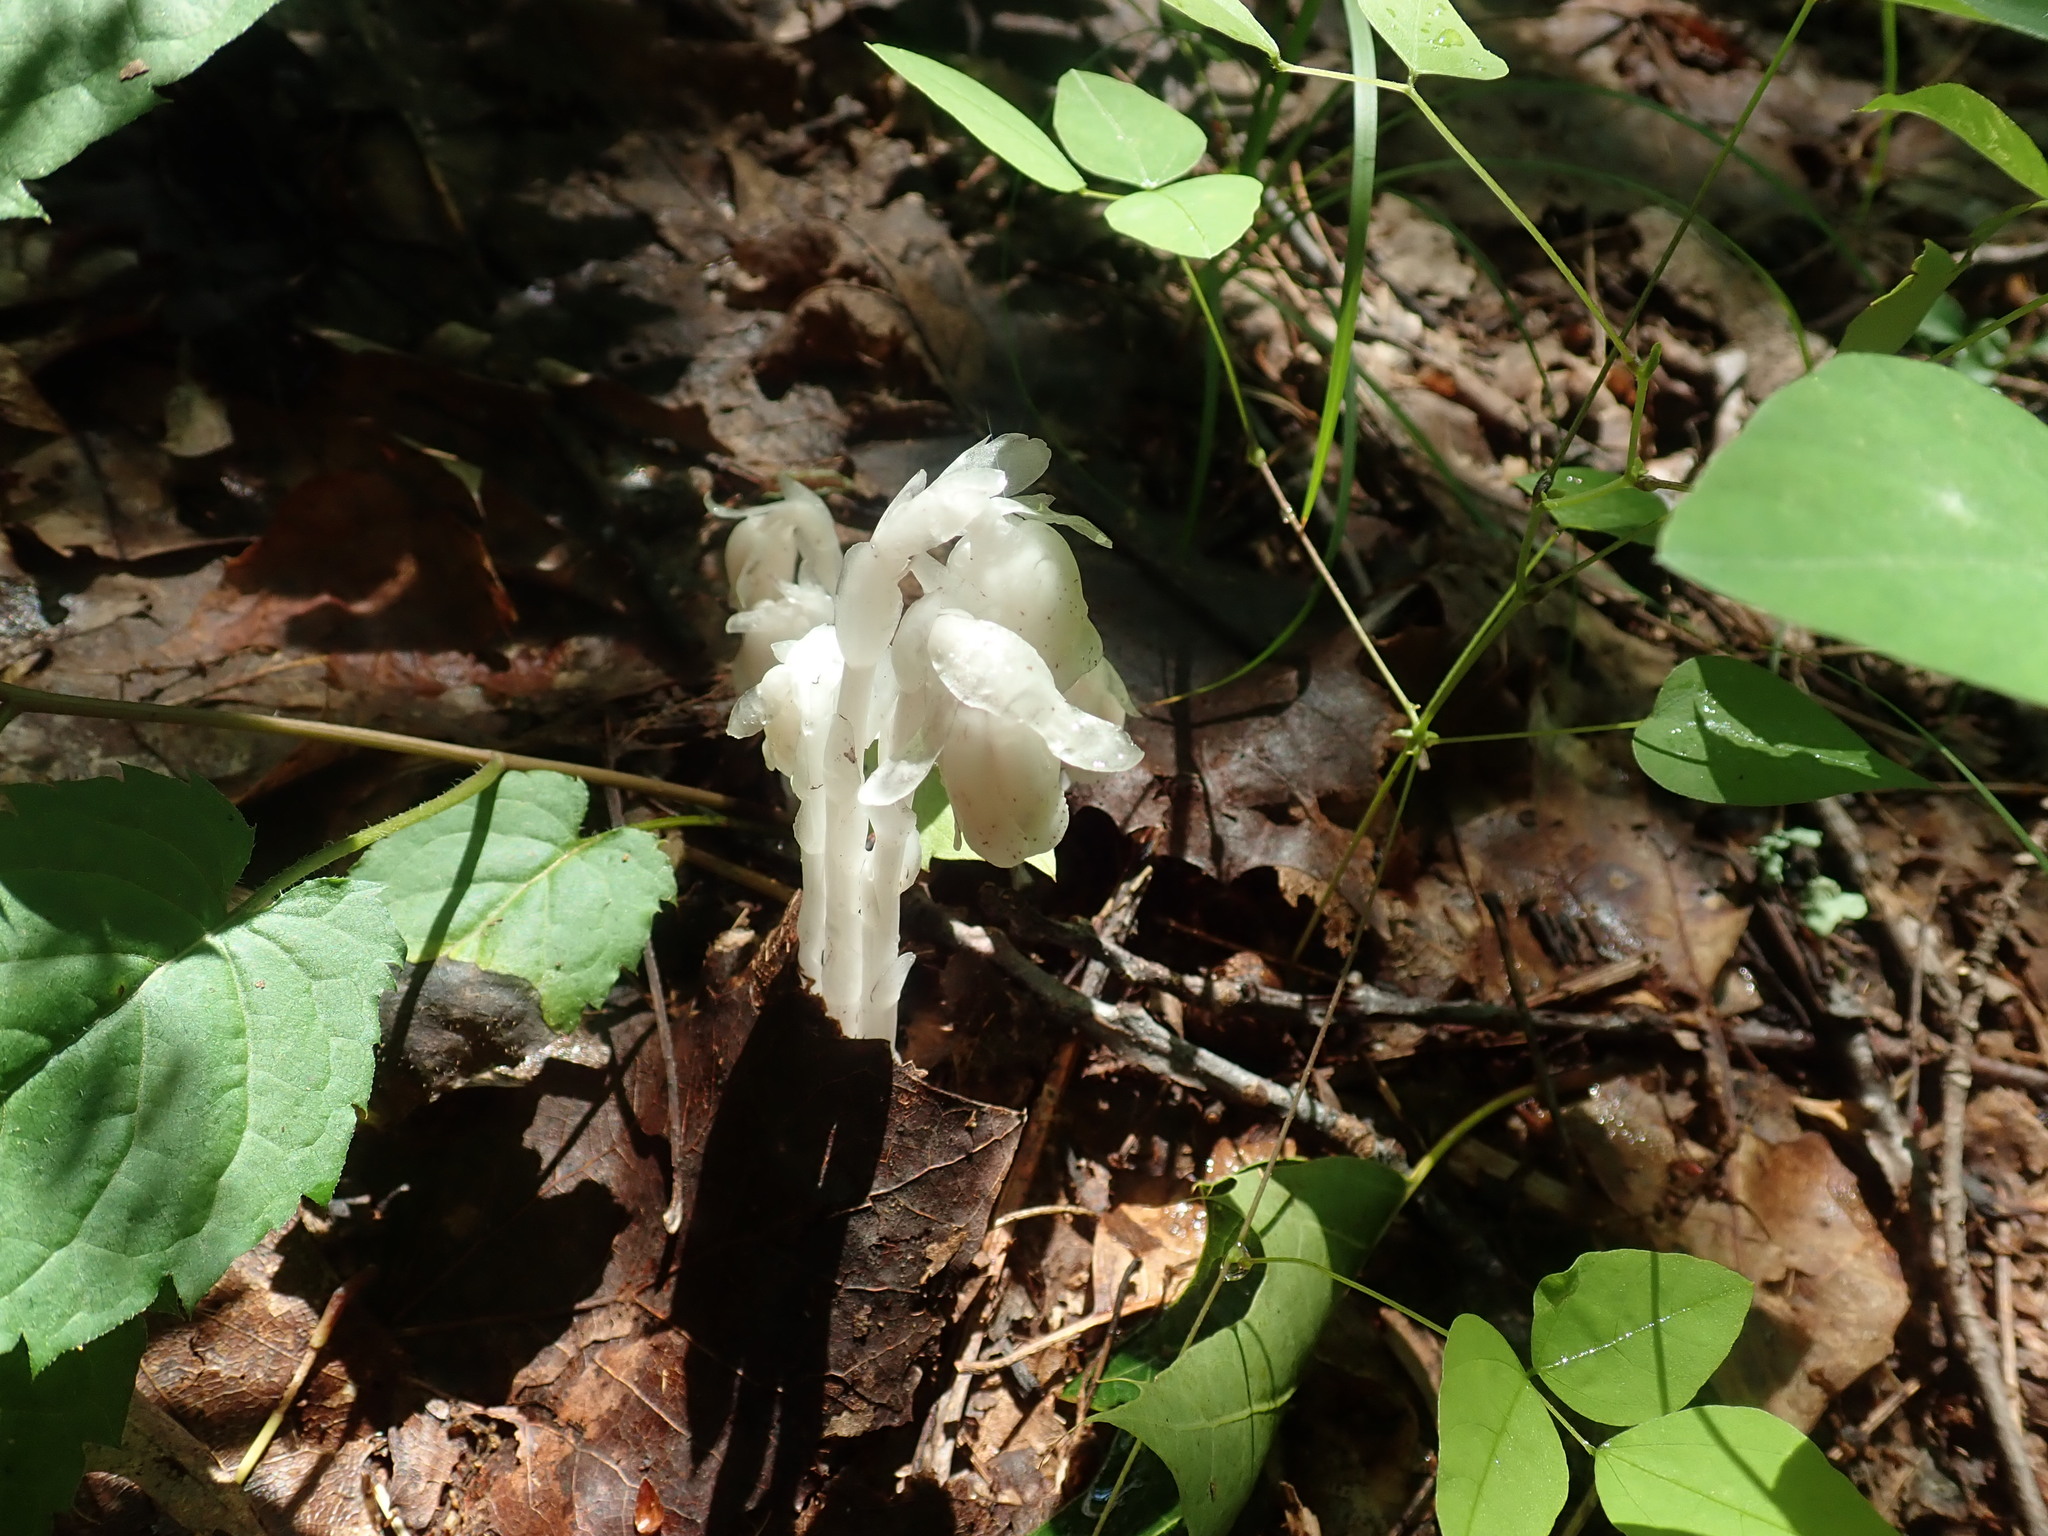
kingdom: Plantae
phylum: Tracheophyta
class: Magnoliopsida
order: Ericales
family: Ericaceae
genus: Monotropa
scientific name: Monotropa uniflora
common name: Convulsion root
